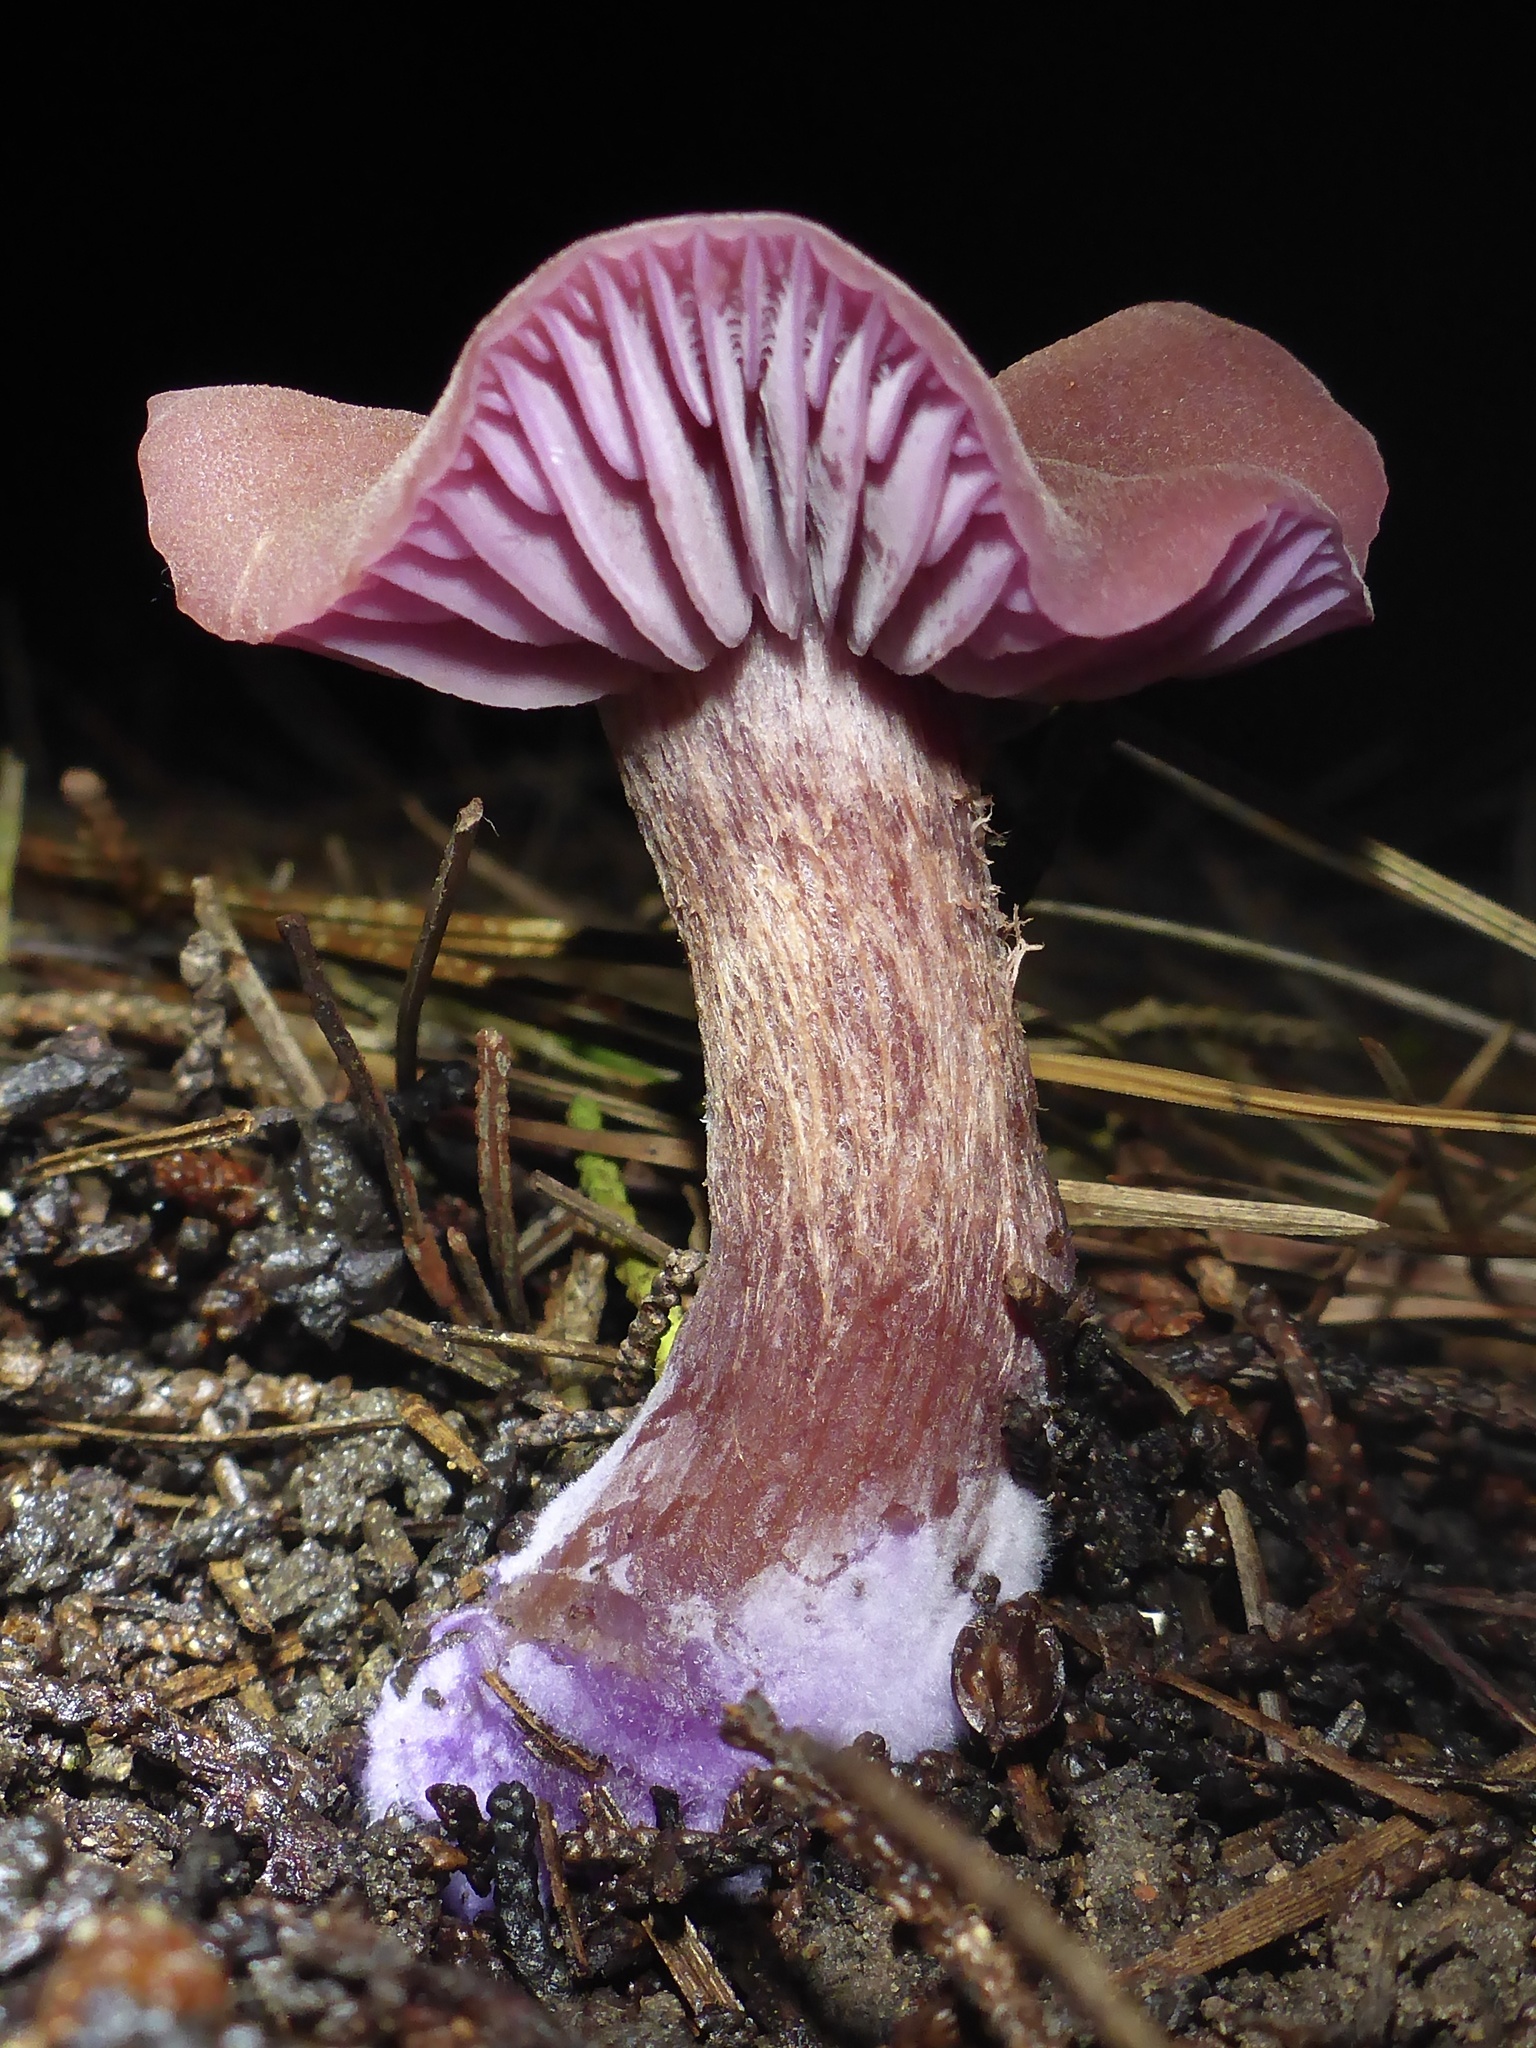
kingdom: Fungi
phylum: Basidiomycota
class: Agaricomycetes
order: Agaricales
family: Hydnangiaceae
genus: Laccaria
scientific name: Laccaria amethysteo-occidentalis
